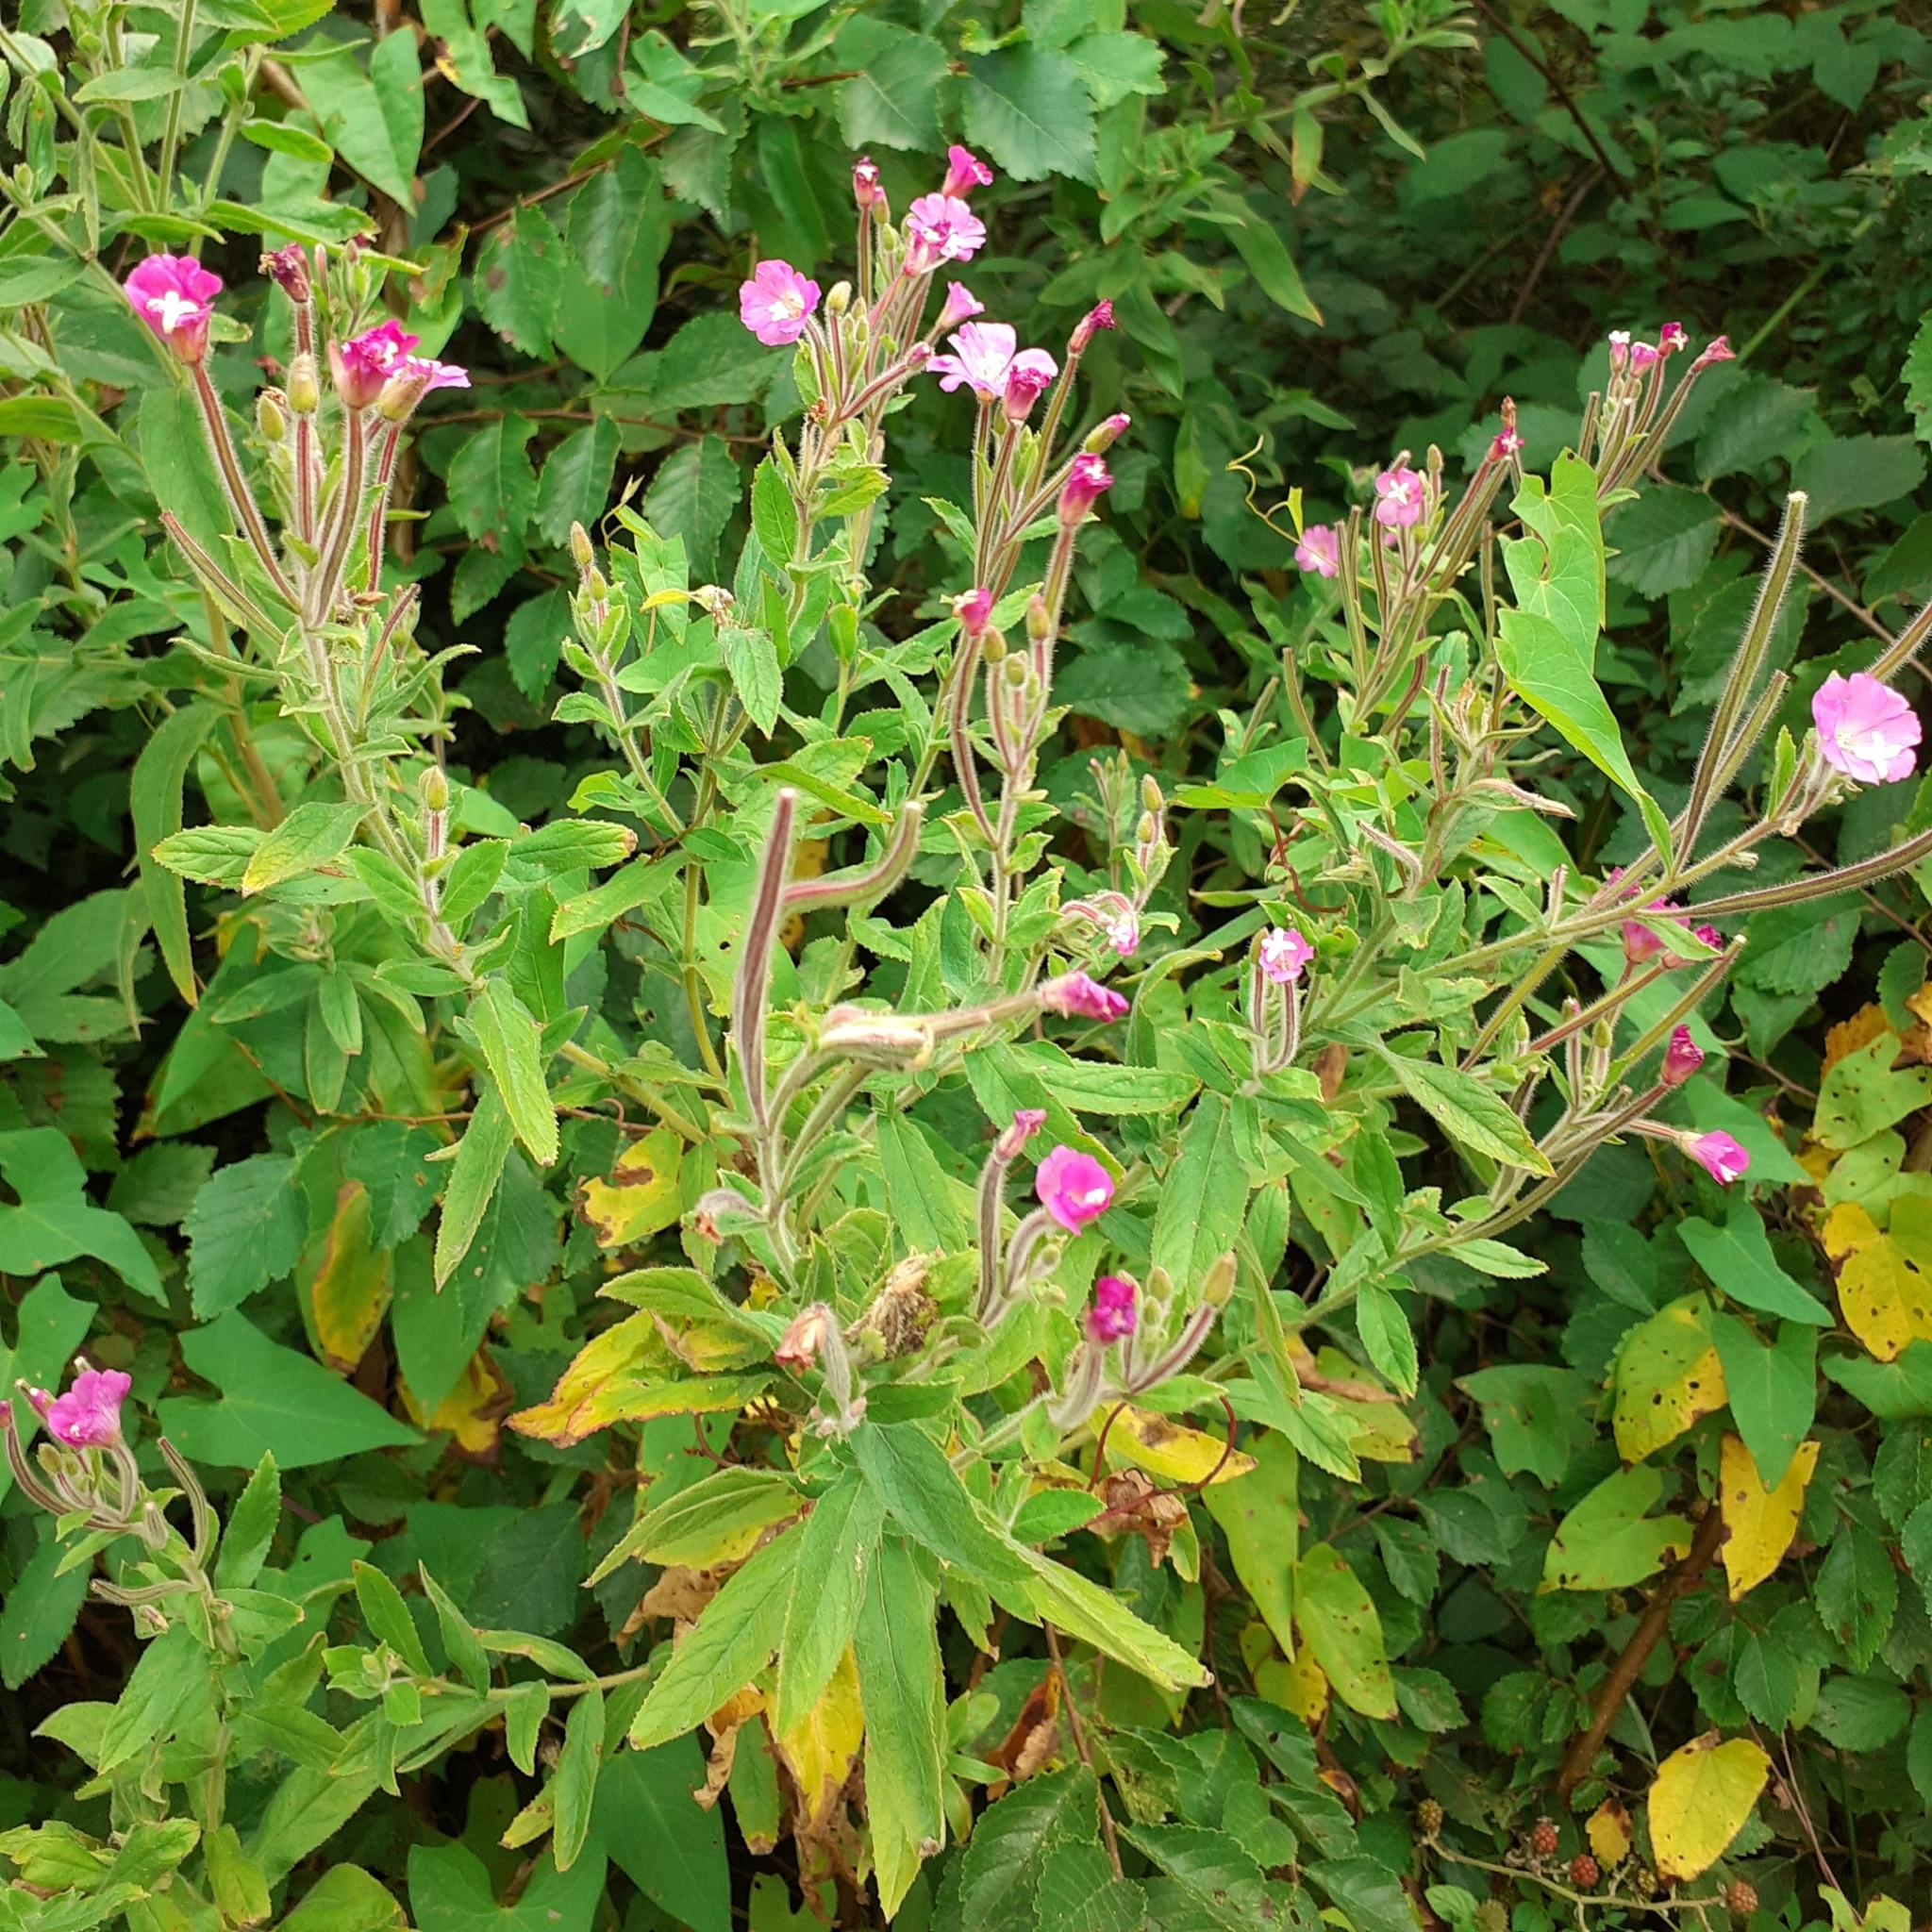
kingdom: Plantae
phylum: Tracheophyta
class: Magnoliopsida
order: Myrtales
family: Onagraceae
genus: Epilobium
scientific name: Epilobium hirsutum
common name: Great willowherb
